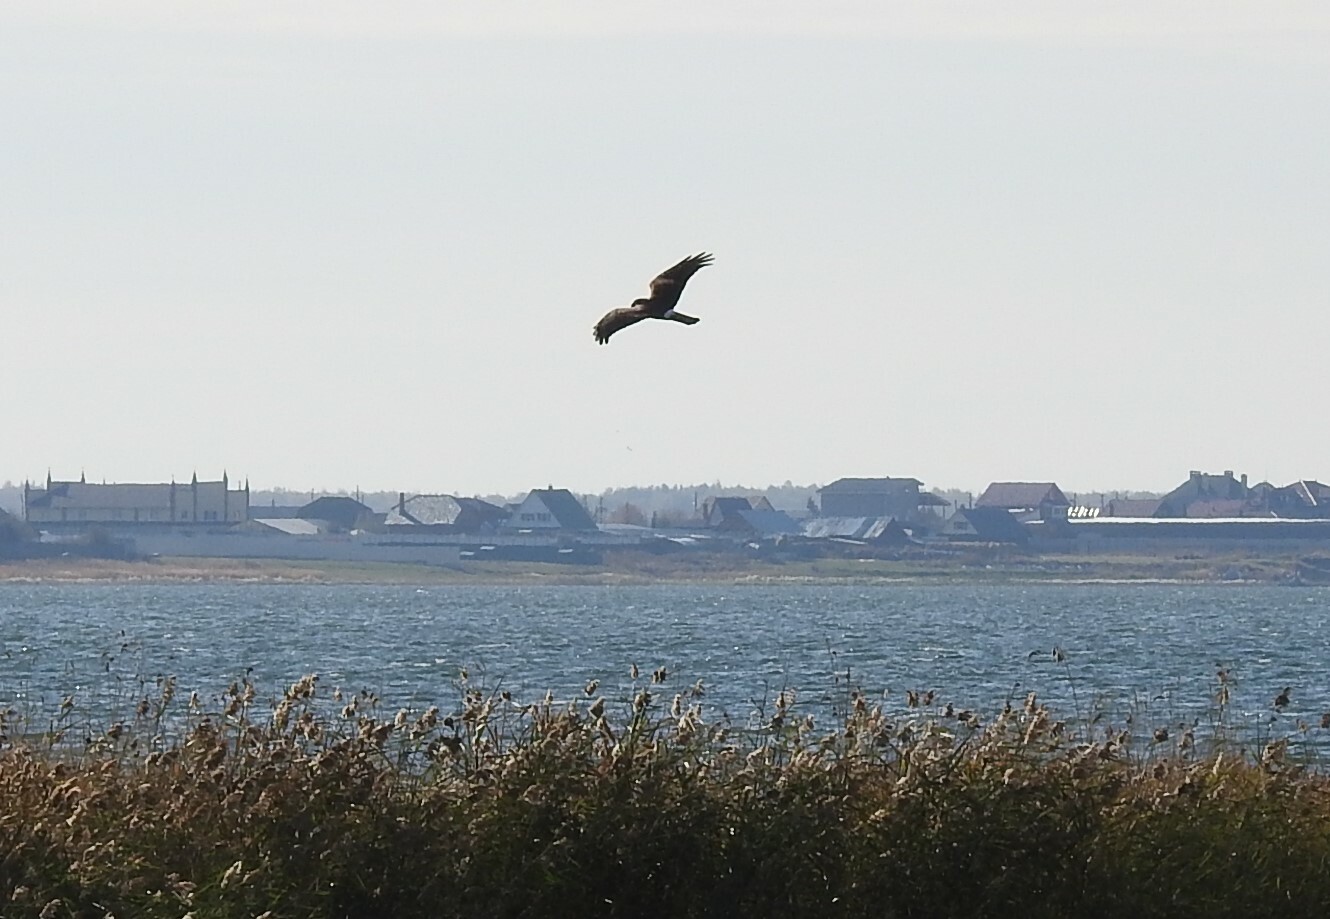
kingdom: Animalia
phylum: Chordata
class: Aves
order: Accipitriformes
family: Accipitridae
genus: Circus
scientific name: Circus aeruginosus
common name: Western marsh harrier
